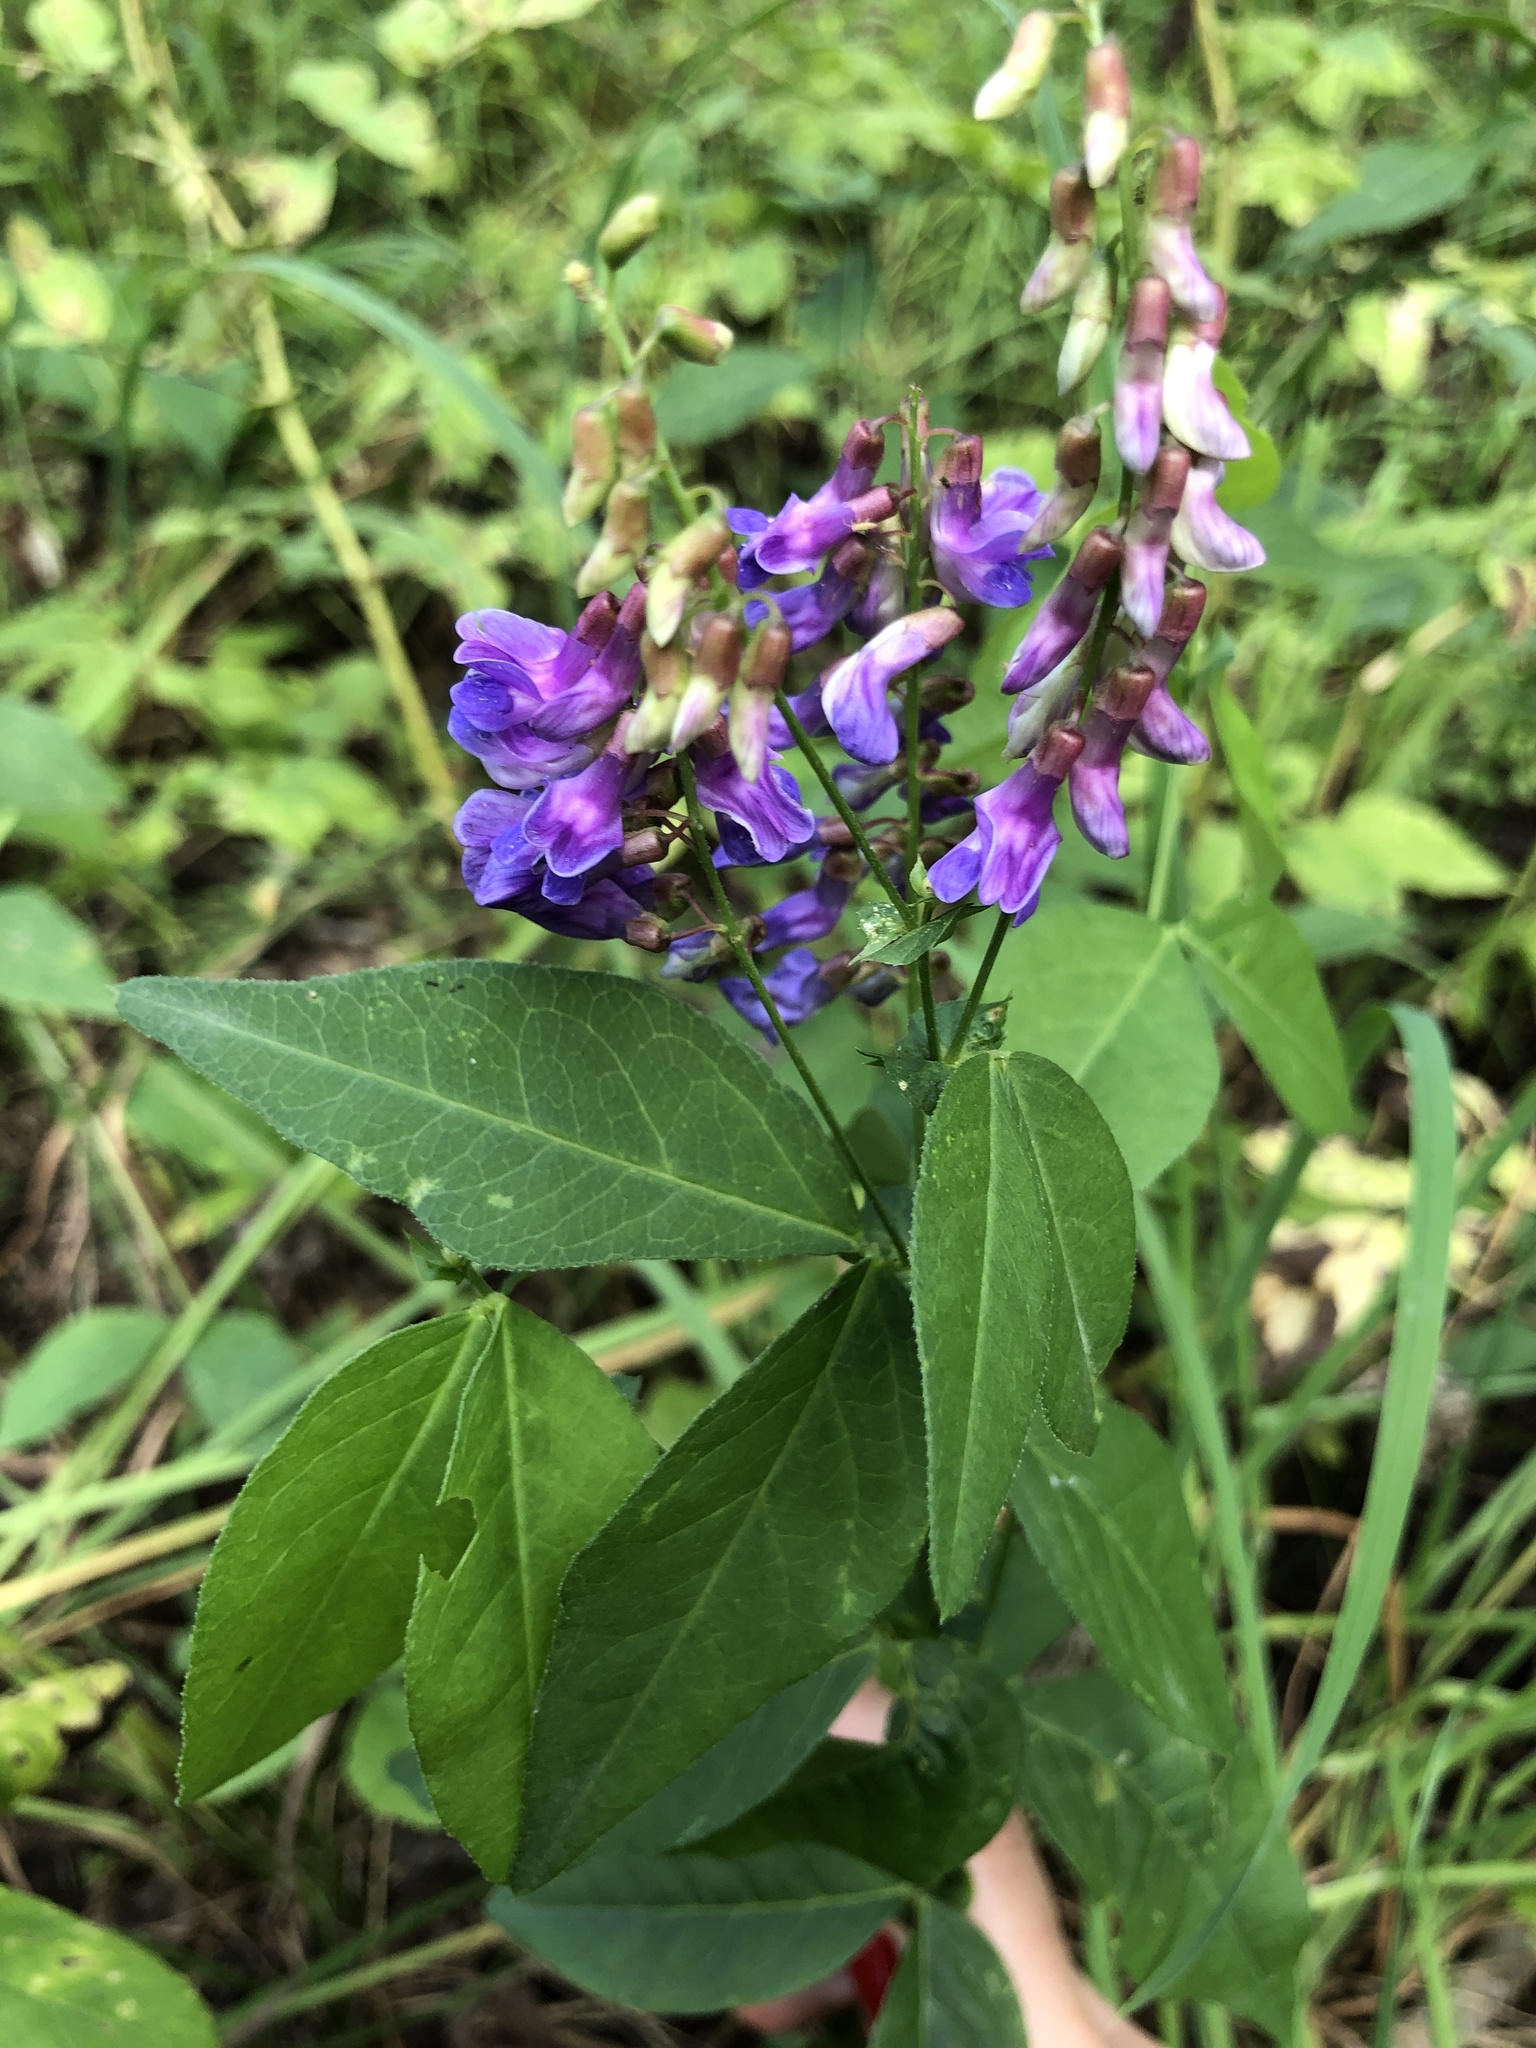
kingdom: Plantae
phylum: Tracheophyta
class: Magnoliopsida
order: Fabales
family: Fabaceae
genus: Vicia
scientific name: Vicia unijuga
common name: Two-leaf vetch
